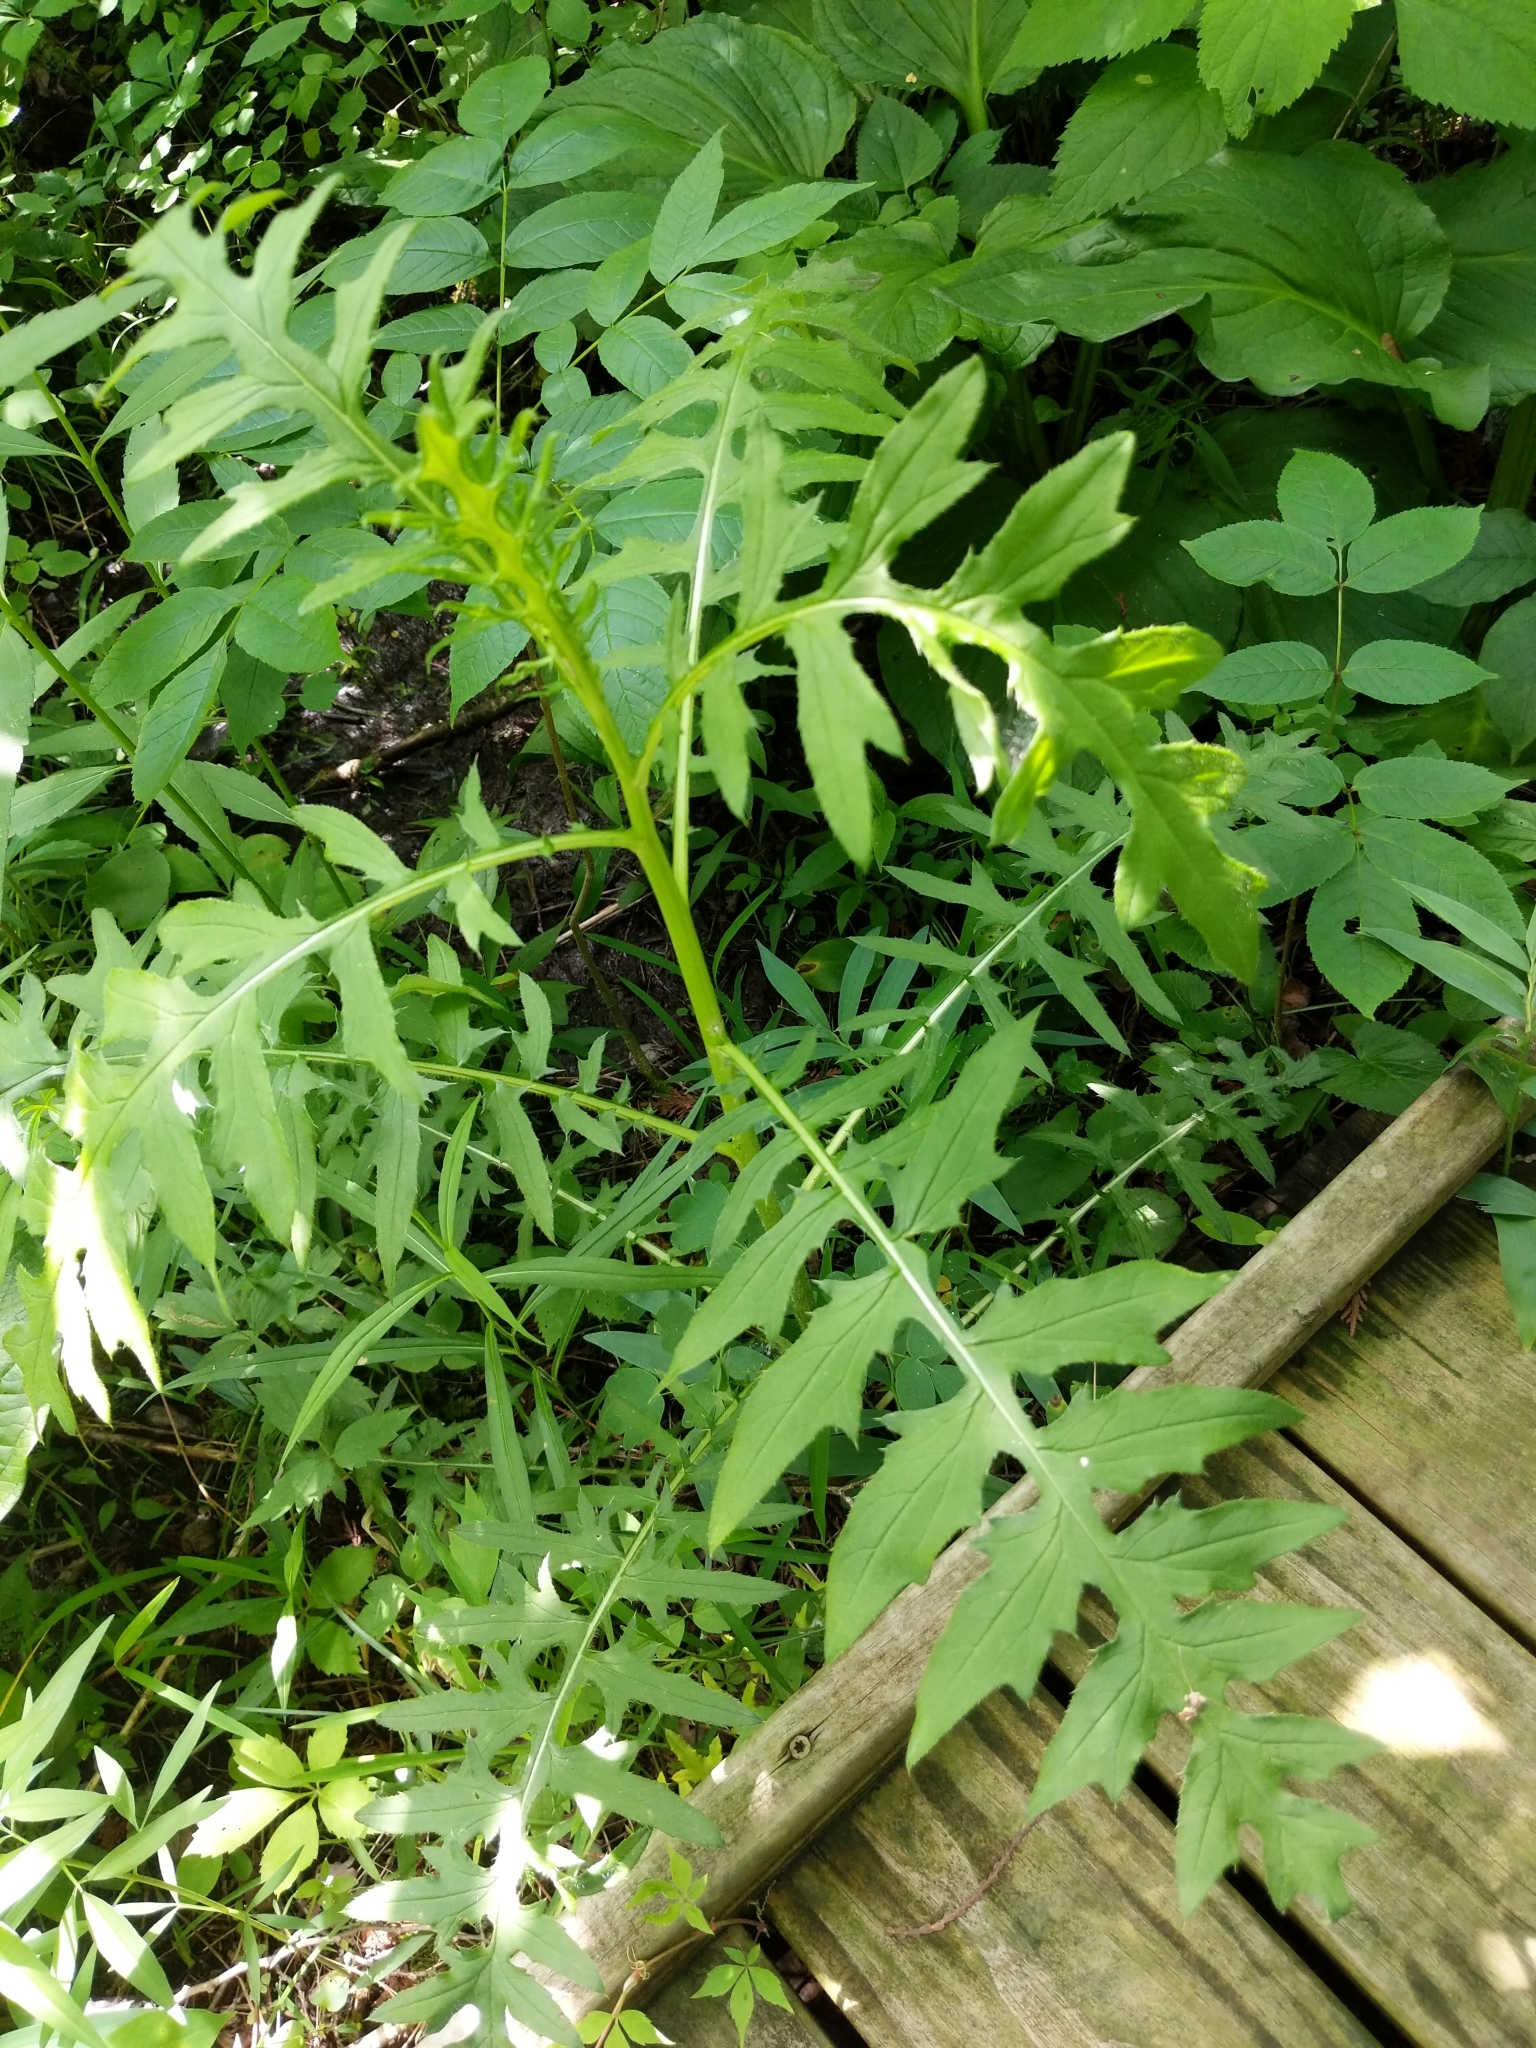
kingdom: Plantae
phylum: Tracheophyta
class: Magnoliopsida
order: Asterales
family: Asteraceae
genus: Cirsium
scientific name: Cirsium muticum
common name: Dunce-nettle
